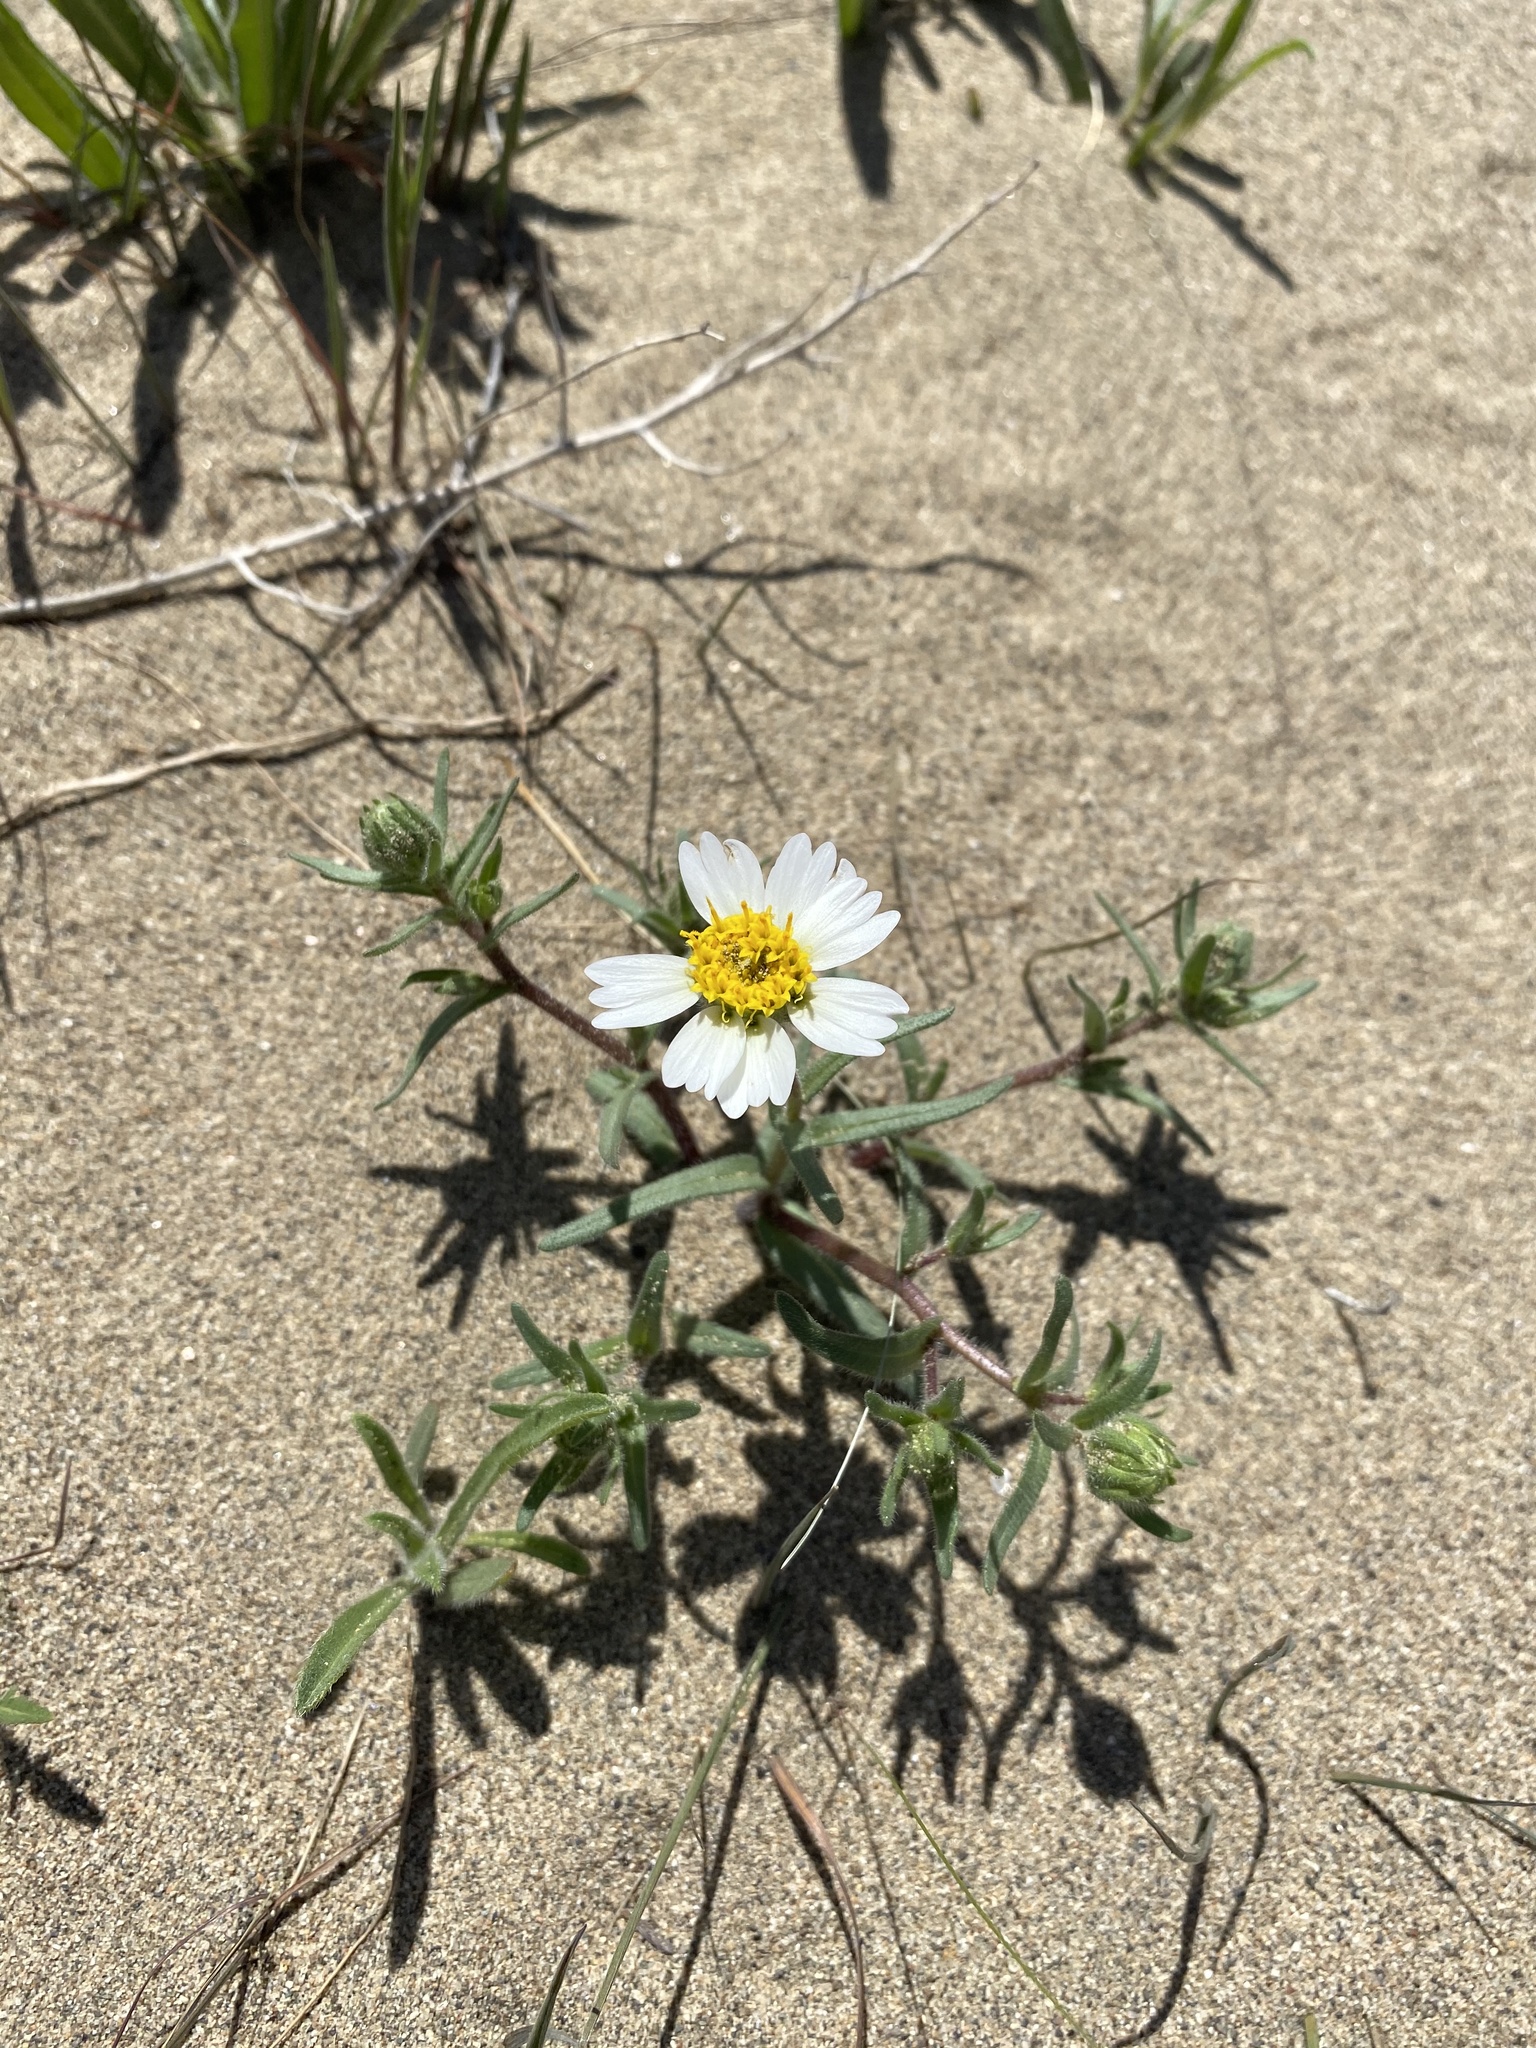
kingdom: Plantae
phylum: Tracheophyta
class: Magnoliopsida
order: Asterales
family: Asteraceae
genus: Layia
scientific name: Layia glandulosa
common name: White layia
